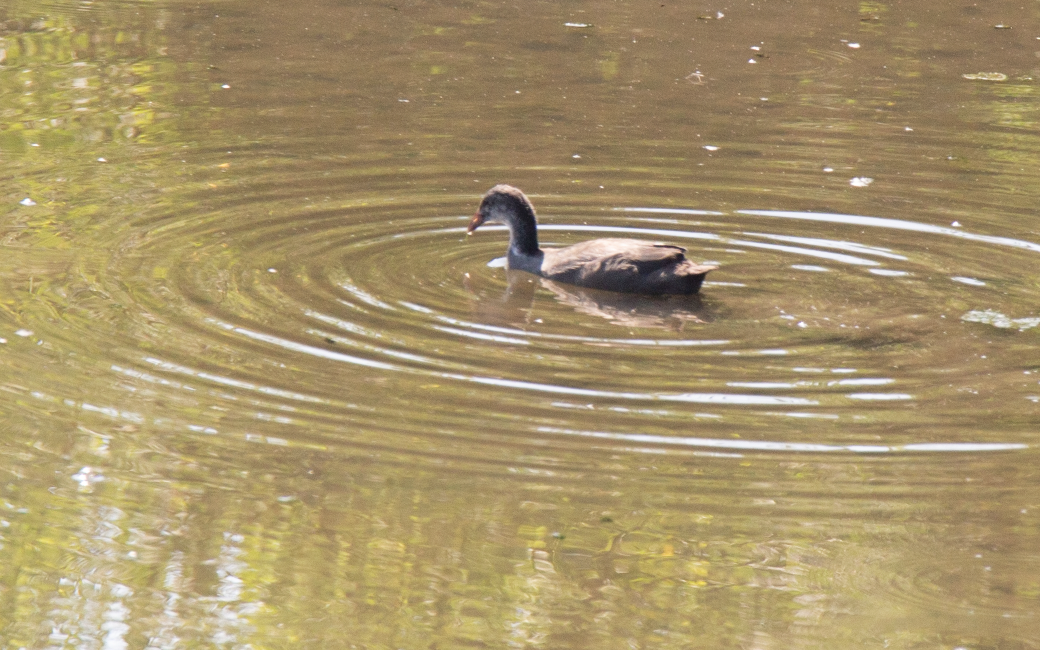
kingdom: Animalia
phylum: Chordata
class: Aves
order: Gruiformes
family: Rallidae
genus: Fulica
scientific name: Fulica atra
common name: Eurasian coot
